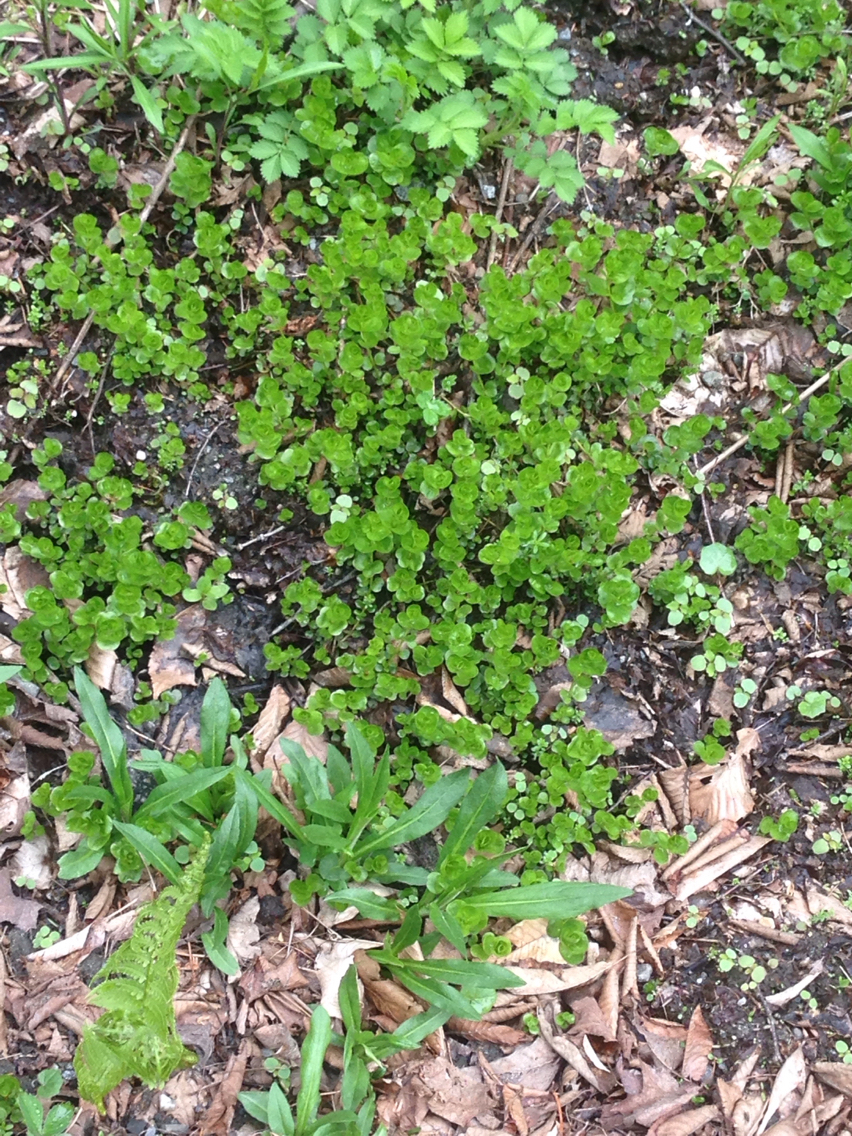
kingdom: Plantae
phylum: Tracheophyta
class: Magnoliopsida
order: Ericales
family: Primulaceae
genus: Lysimachia
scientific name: Lysimachia nummularia
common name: Moneywort
